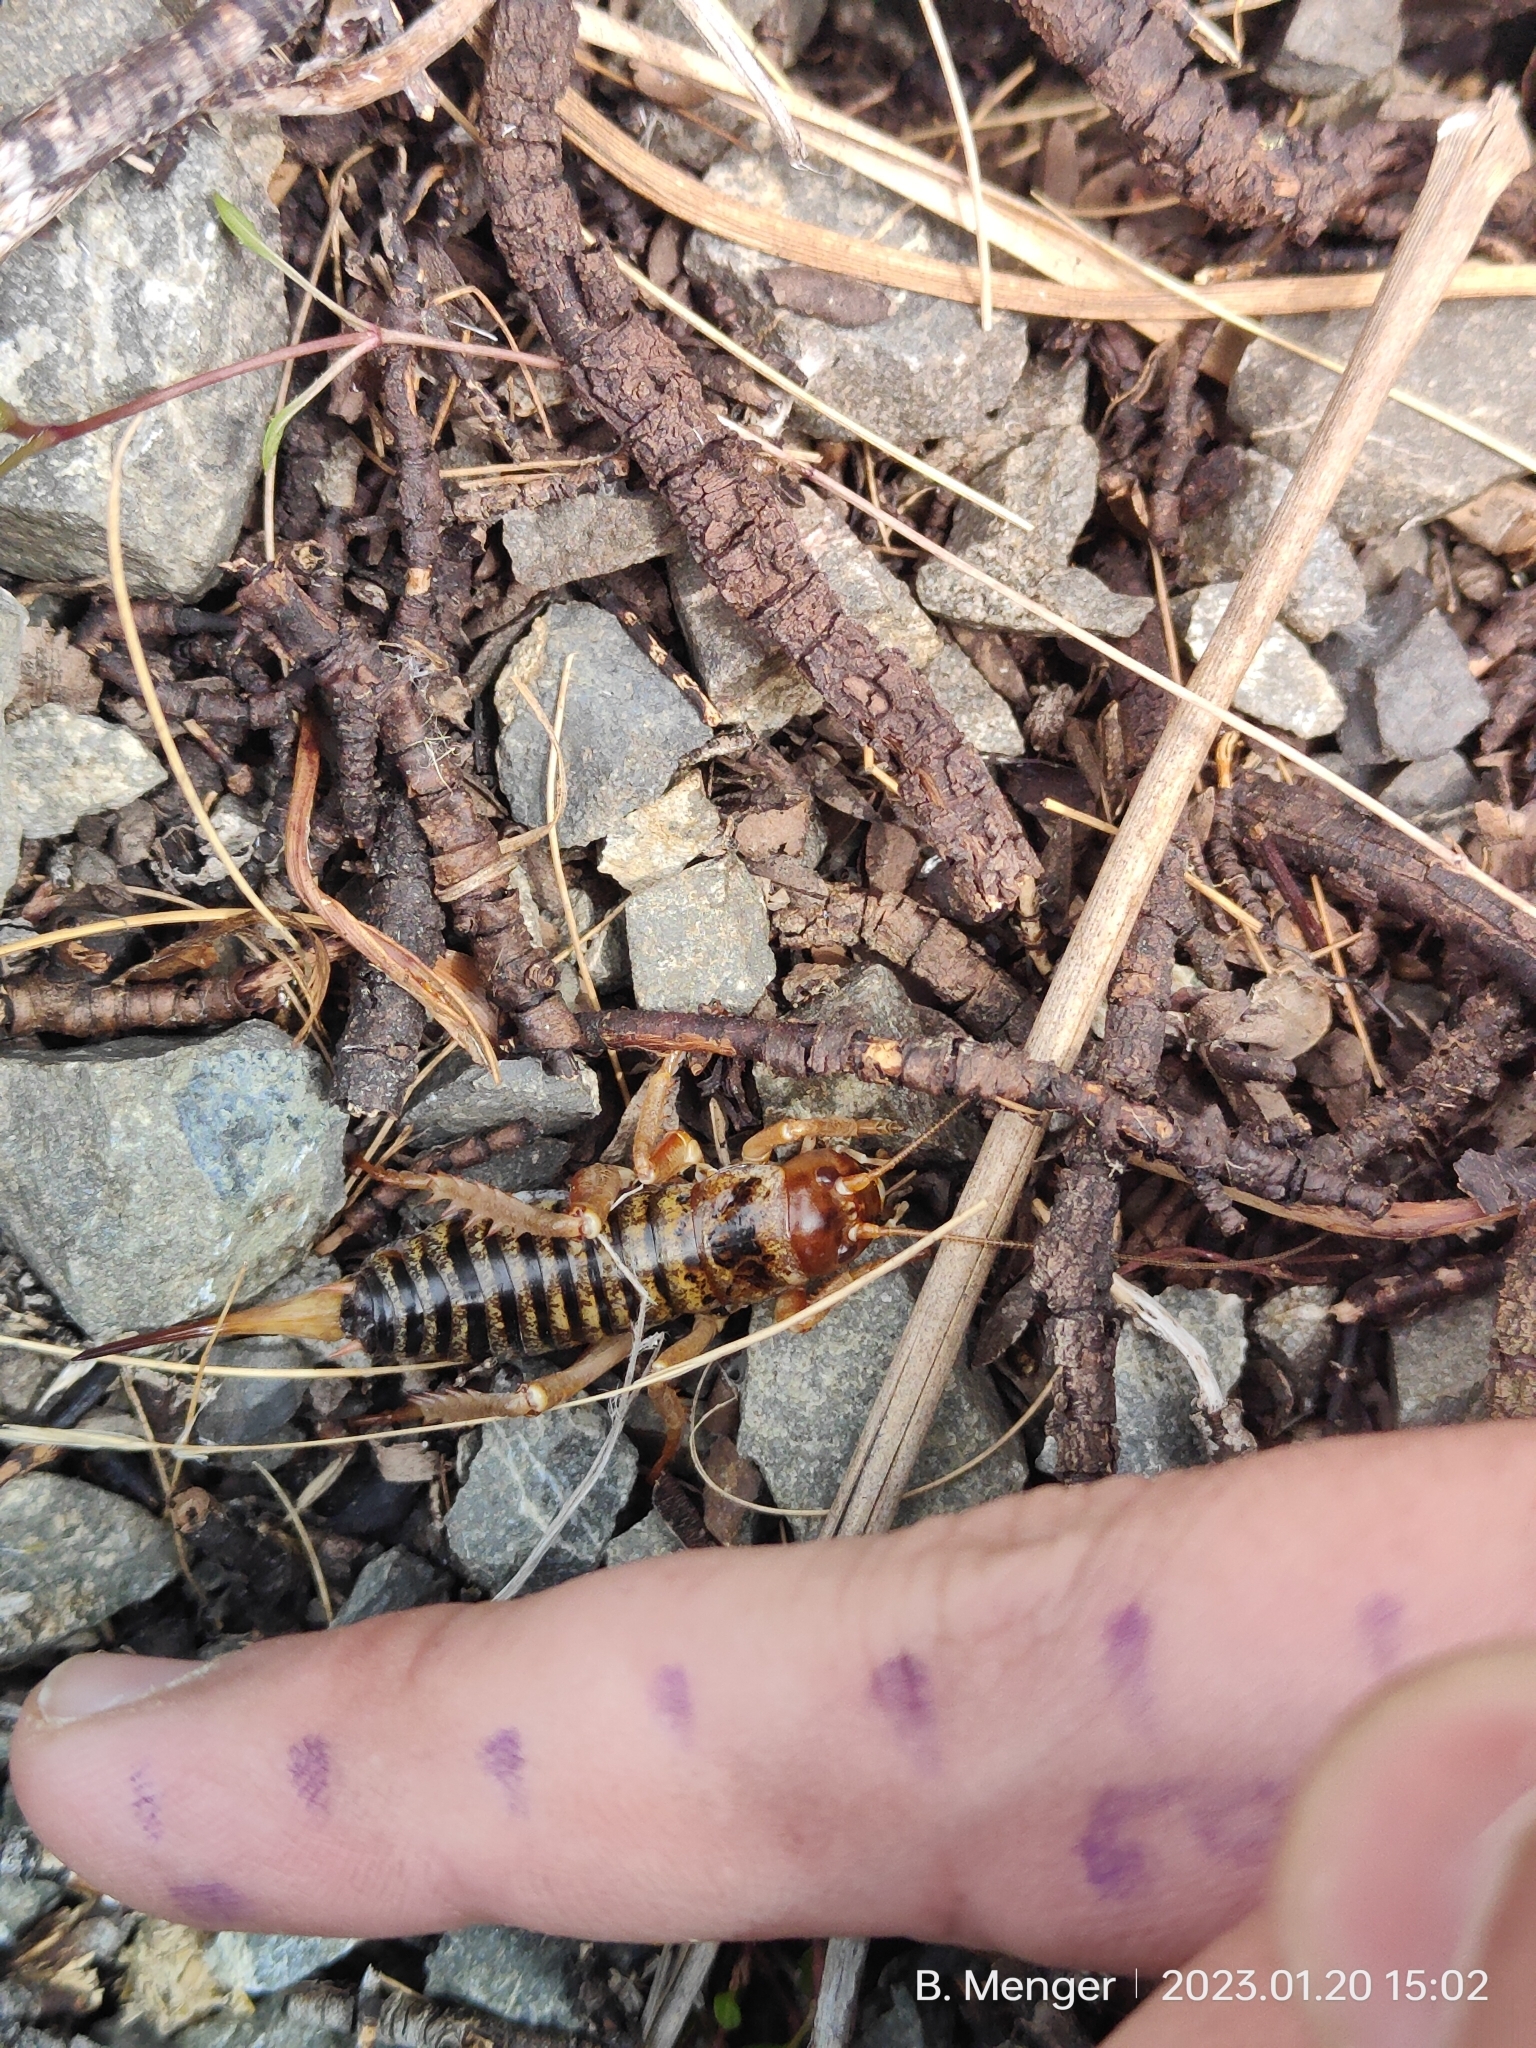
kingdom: Animalia
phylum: Arthropoda
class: Insecta
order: Orthoptera
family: Anostostomatidae
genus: Hemideina
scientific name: Hemideina maori
